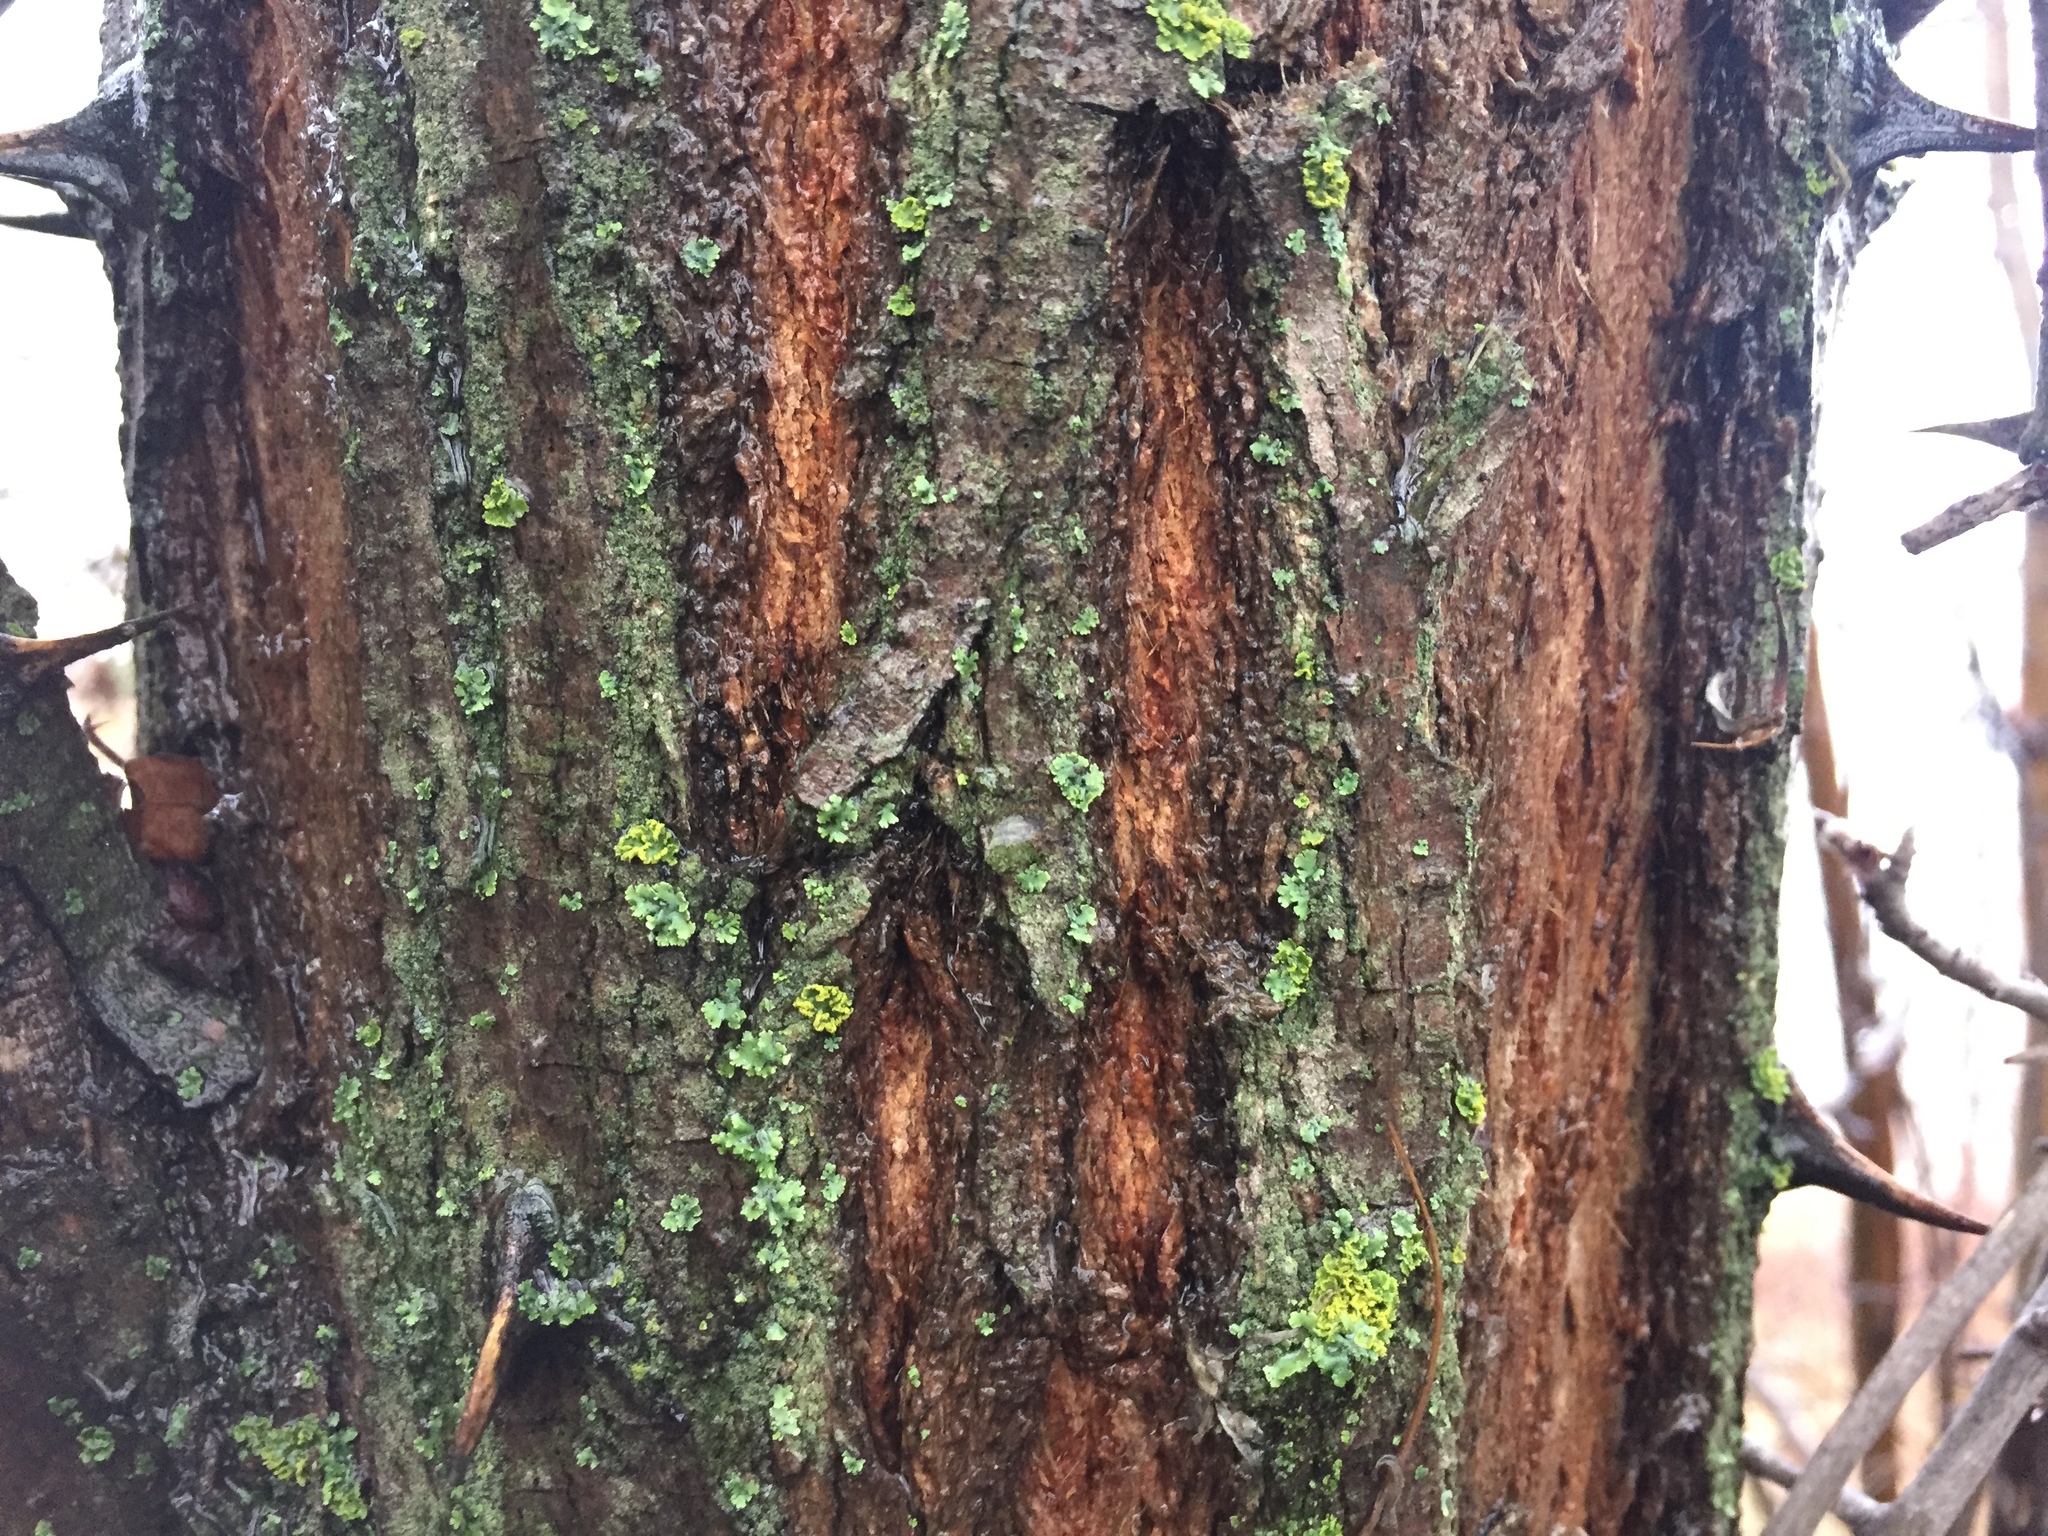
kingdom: Plantae
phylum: Tracheophyta
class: Magnoliopsida
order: Fabales
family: Fabaceae
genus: Robinia
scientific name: Robinia pseudoacacia
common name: Black locust
